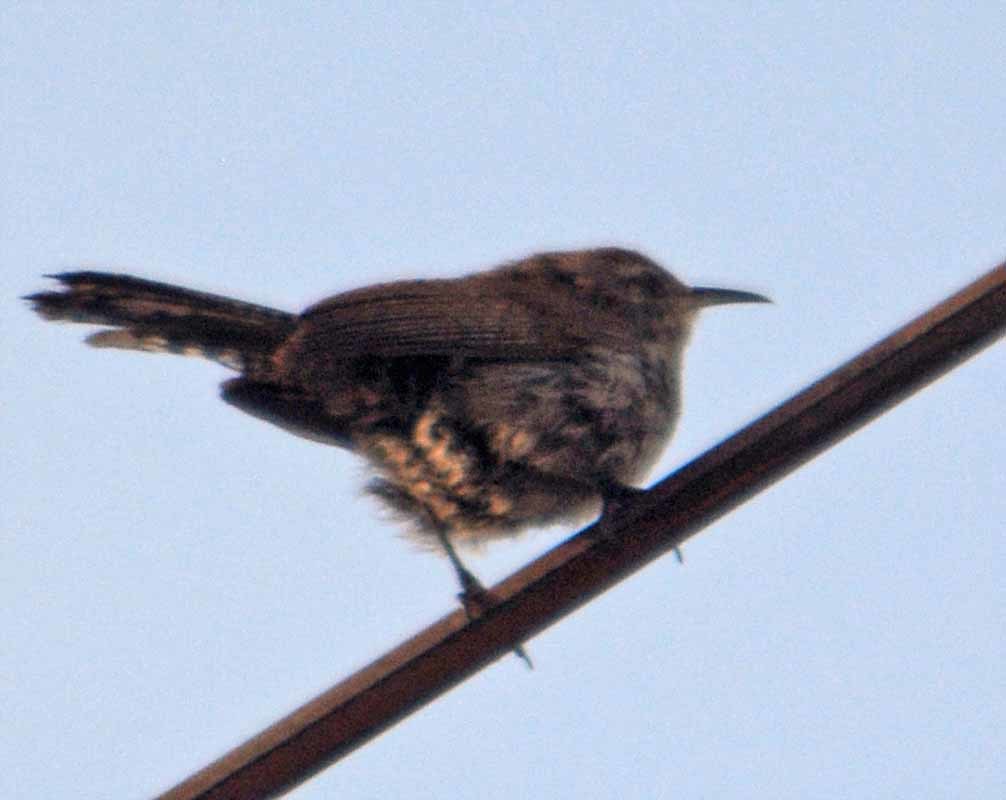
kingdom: Animalia
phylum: Chordata
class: Aves
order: Passeriformes
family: Troglodytidae
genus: Thryomanes
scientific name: Thryomanes bewickii
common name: Bewick's wren
